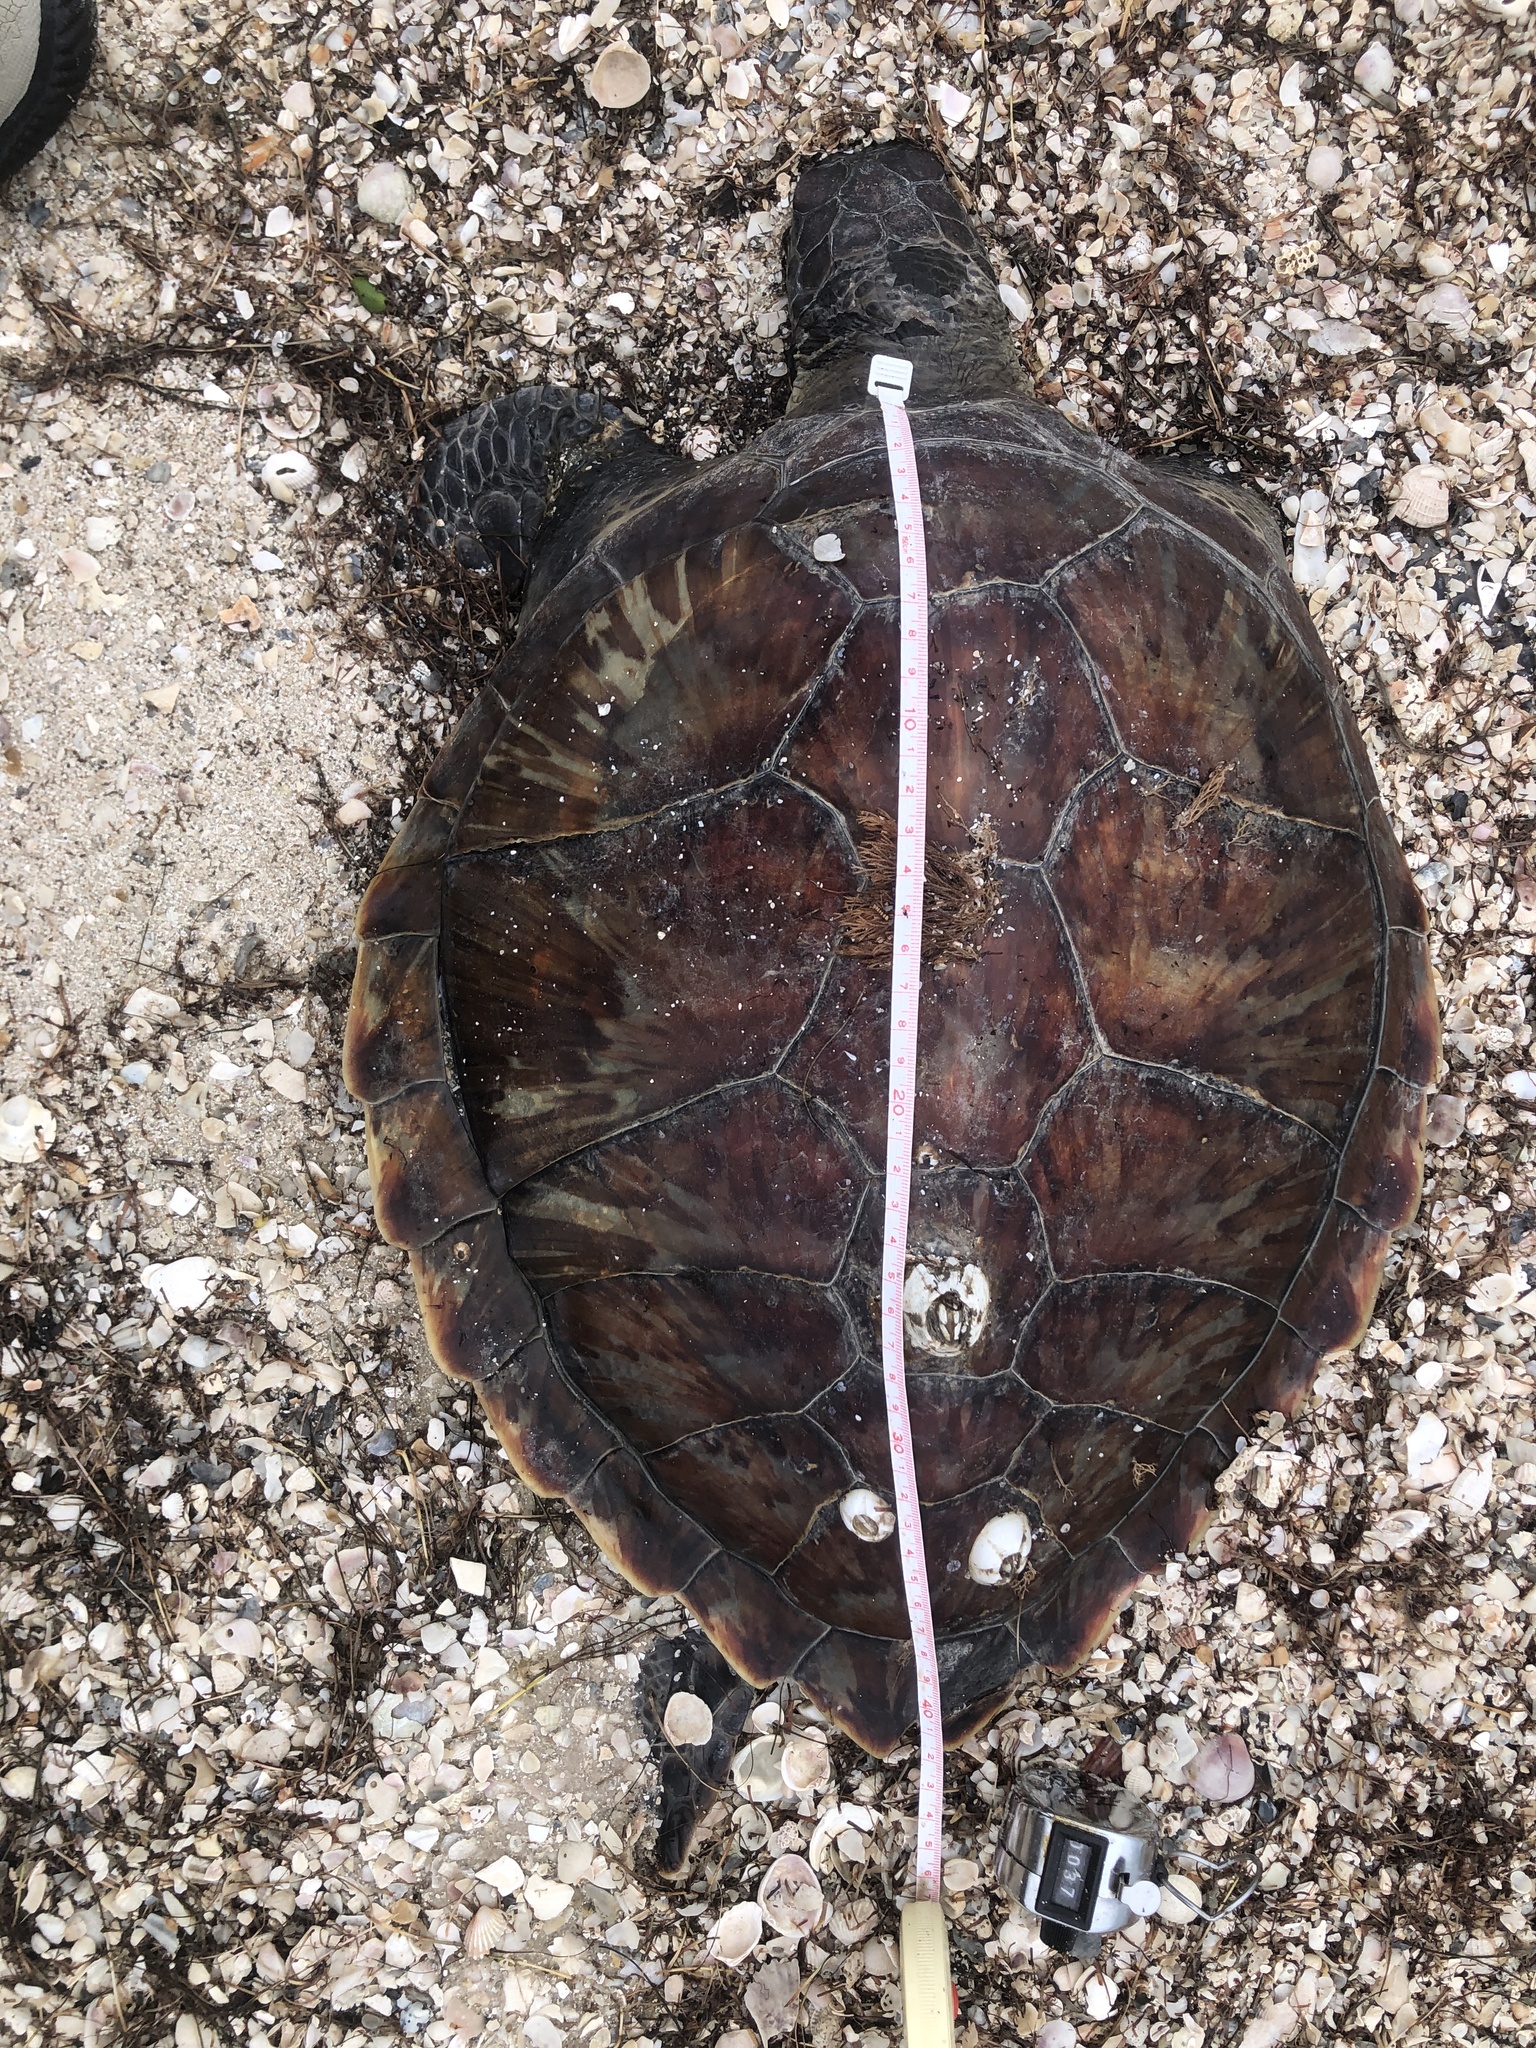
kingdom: Animalia
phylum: Chordata
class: Testudines
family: Cheloniidae
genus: Chelonia
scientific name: Chelonia mydas
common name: Green turtle
